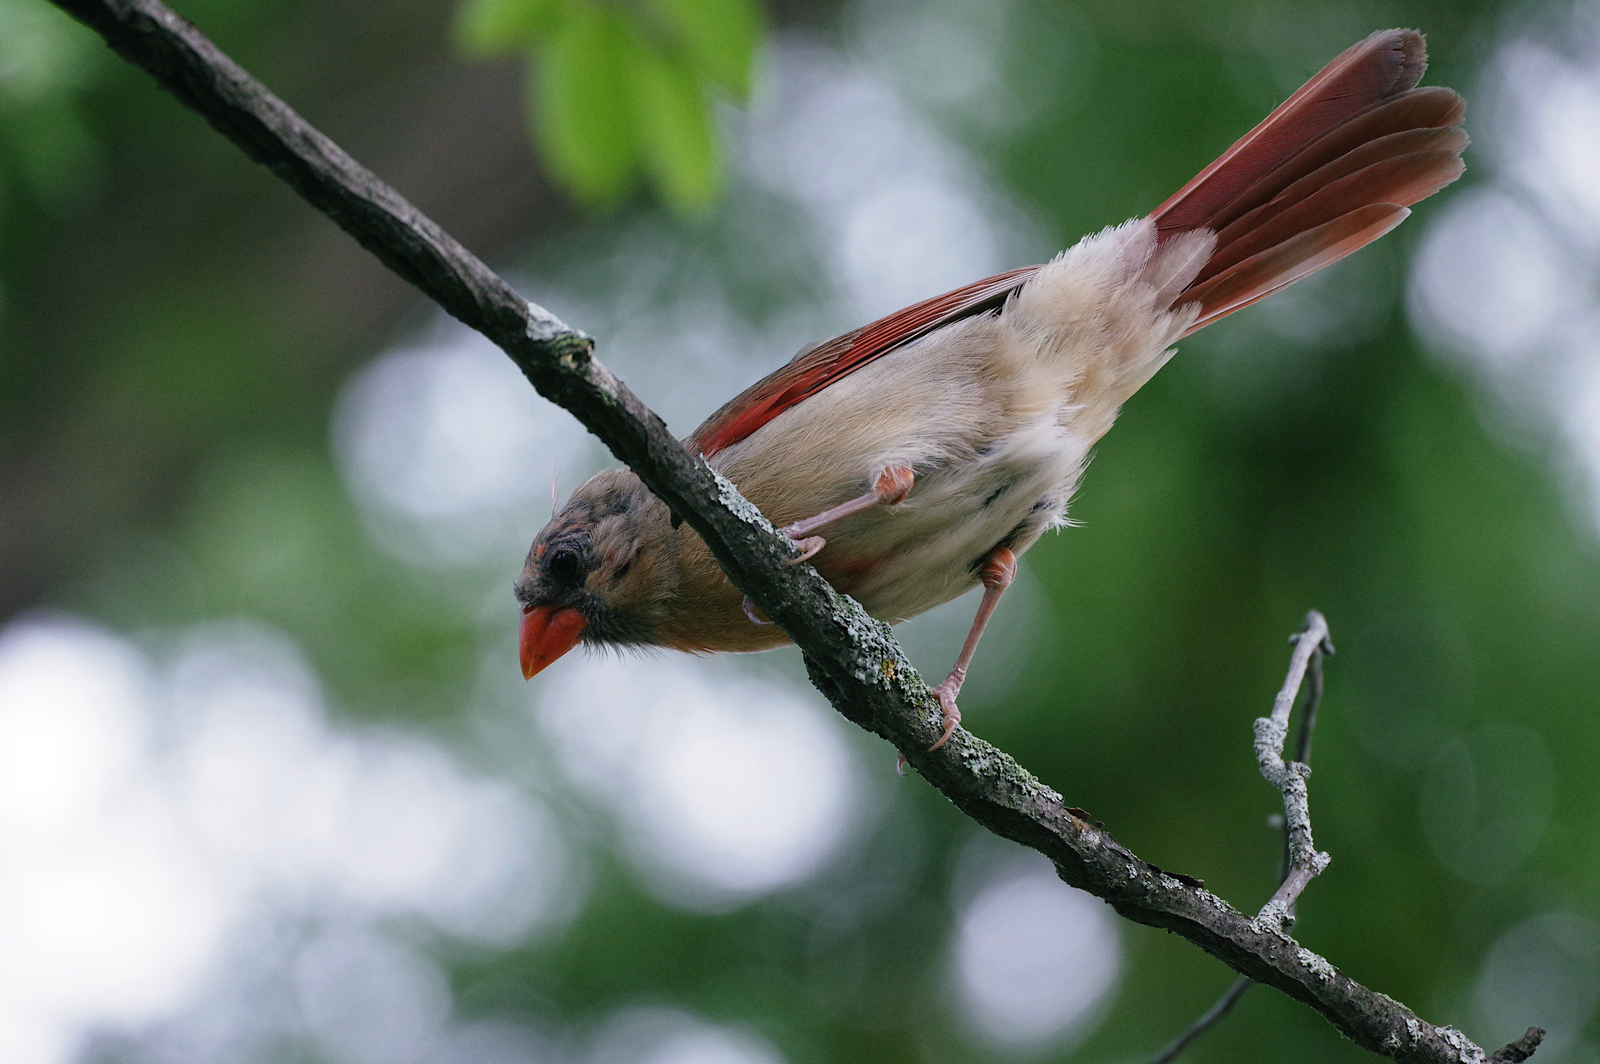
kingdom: Animalia
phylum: Chordata
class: Aves
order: Passeriformes
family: Cardinalidae
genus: Cardinalis
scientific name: Cardinalis cardinalis
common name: Northern cardinal
